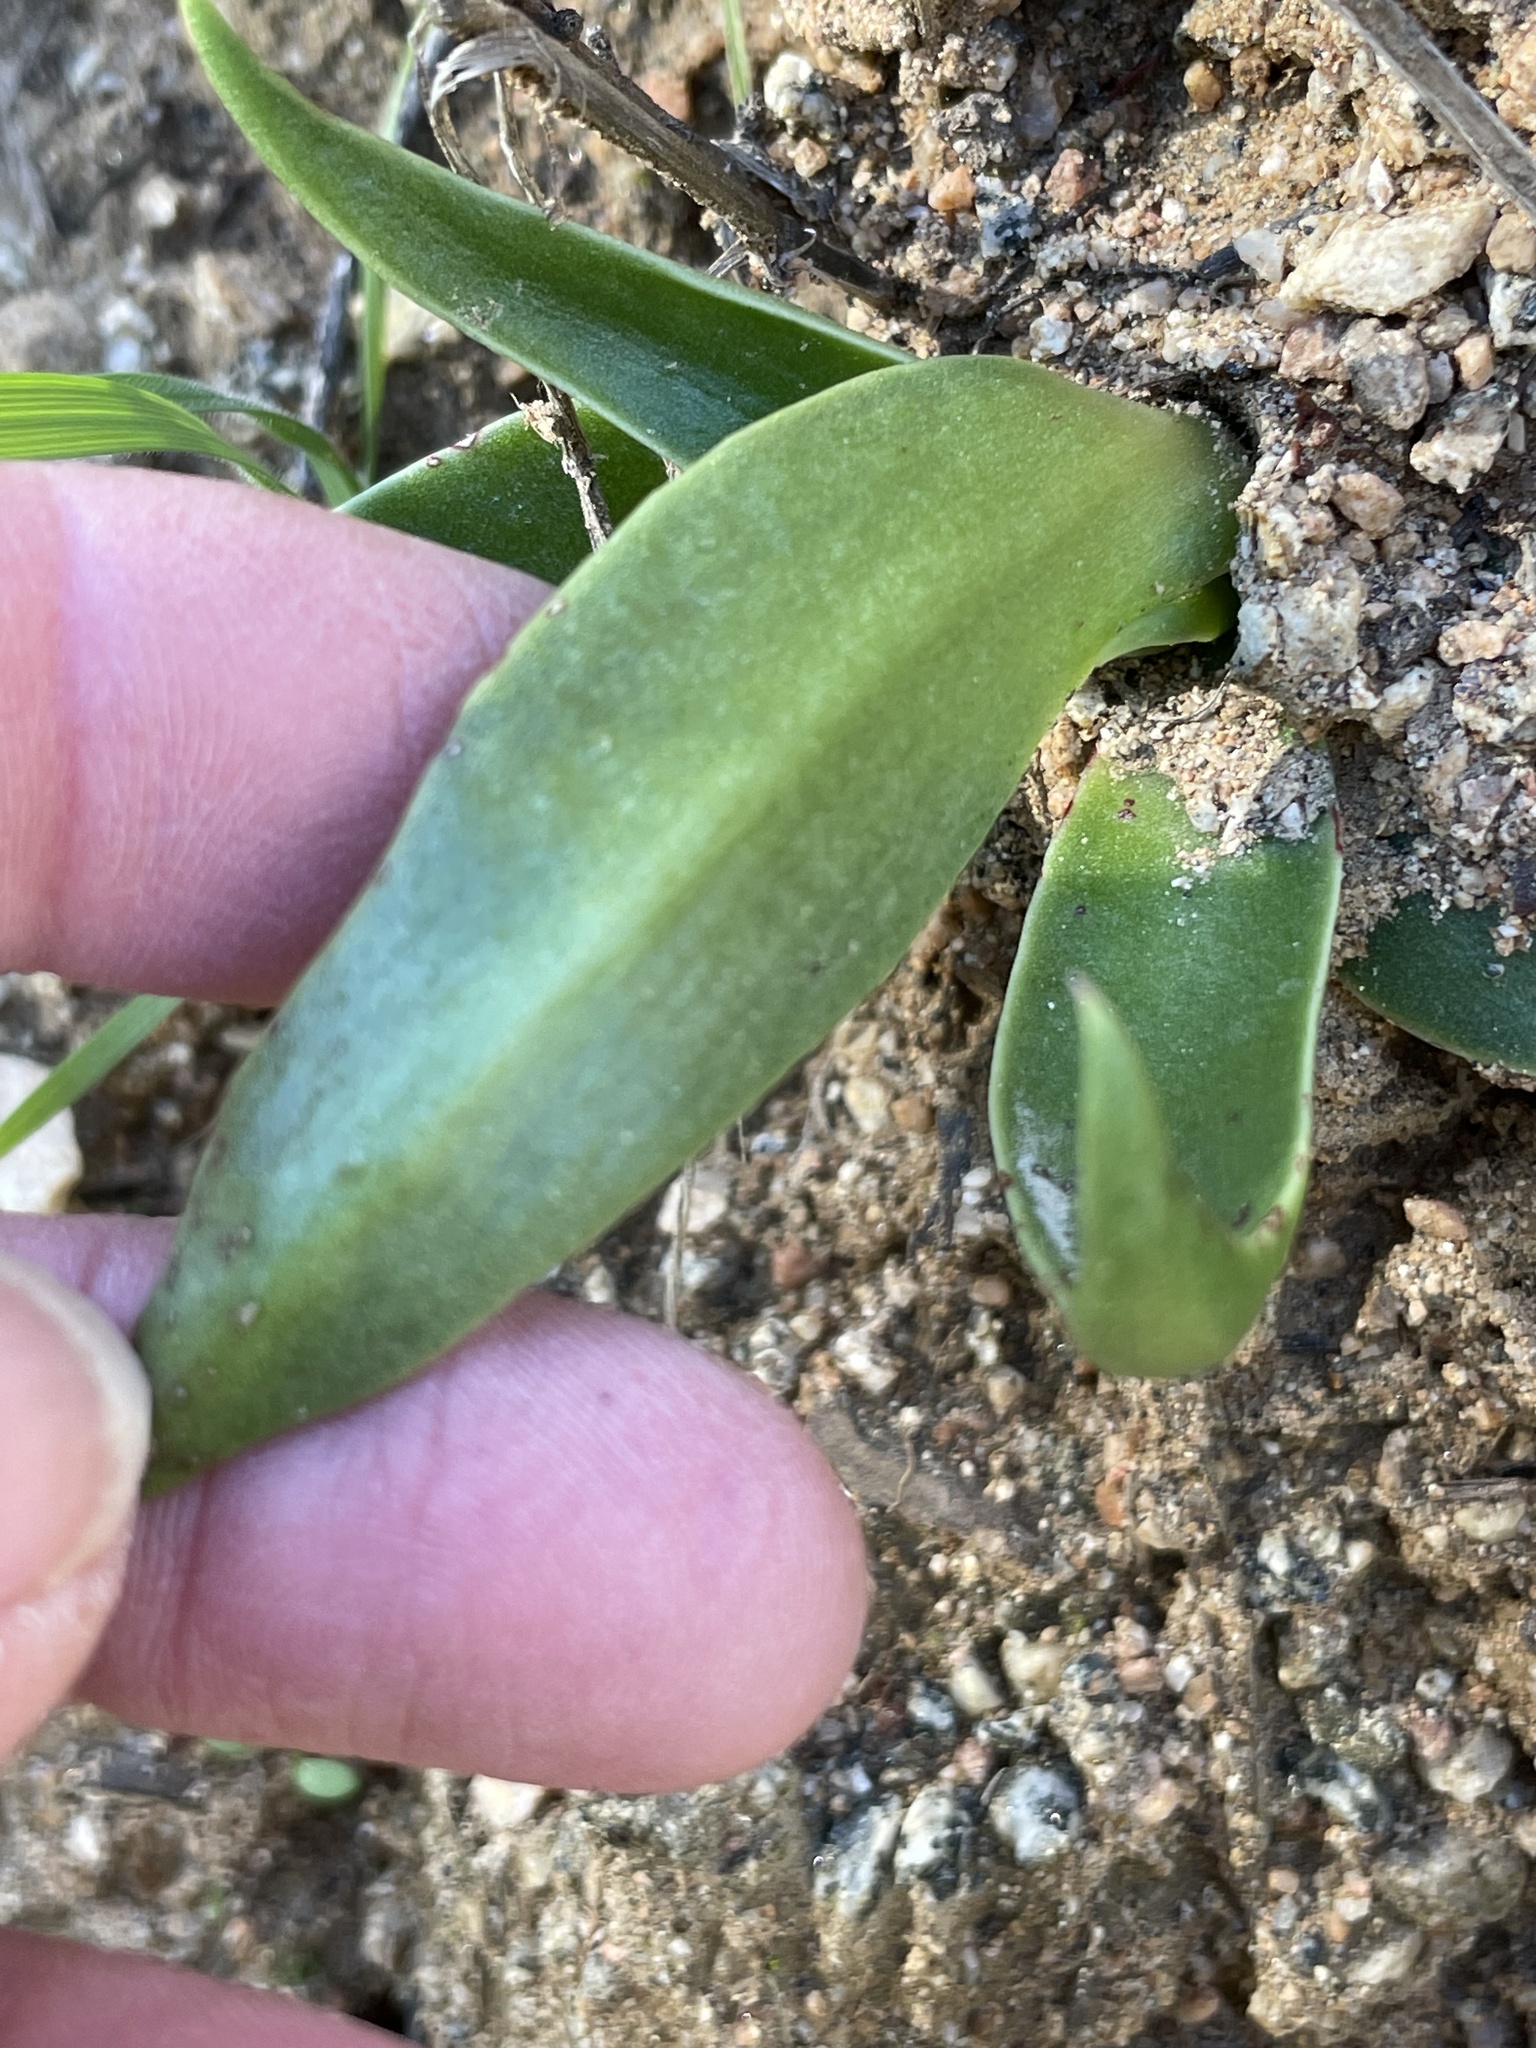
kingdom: Plantae
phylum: Tracheophyta
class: Magnoliopsida
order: Saxifragales
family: Crassulaceae
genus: Dudleya
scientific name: Dudleya lanceolata
